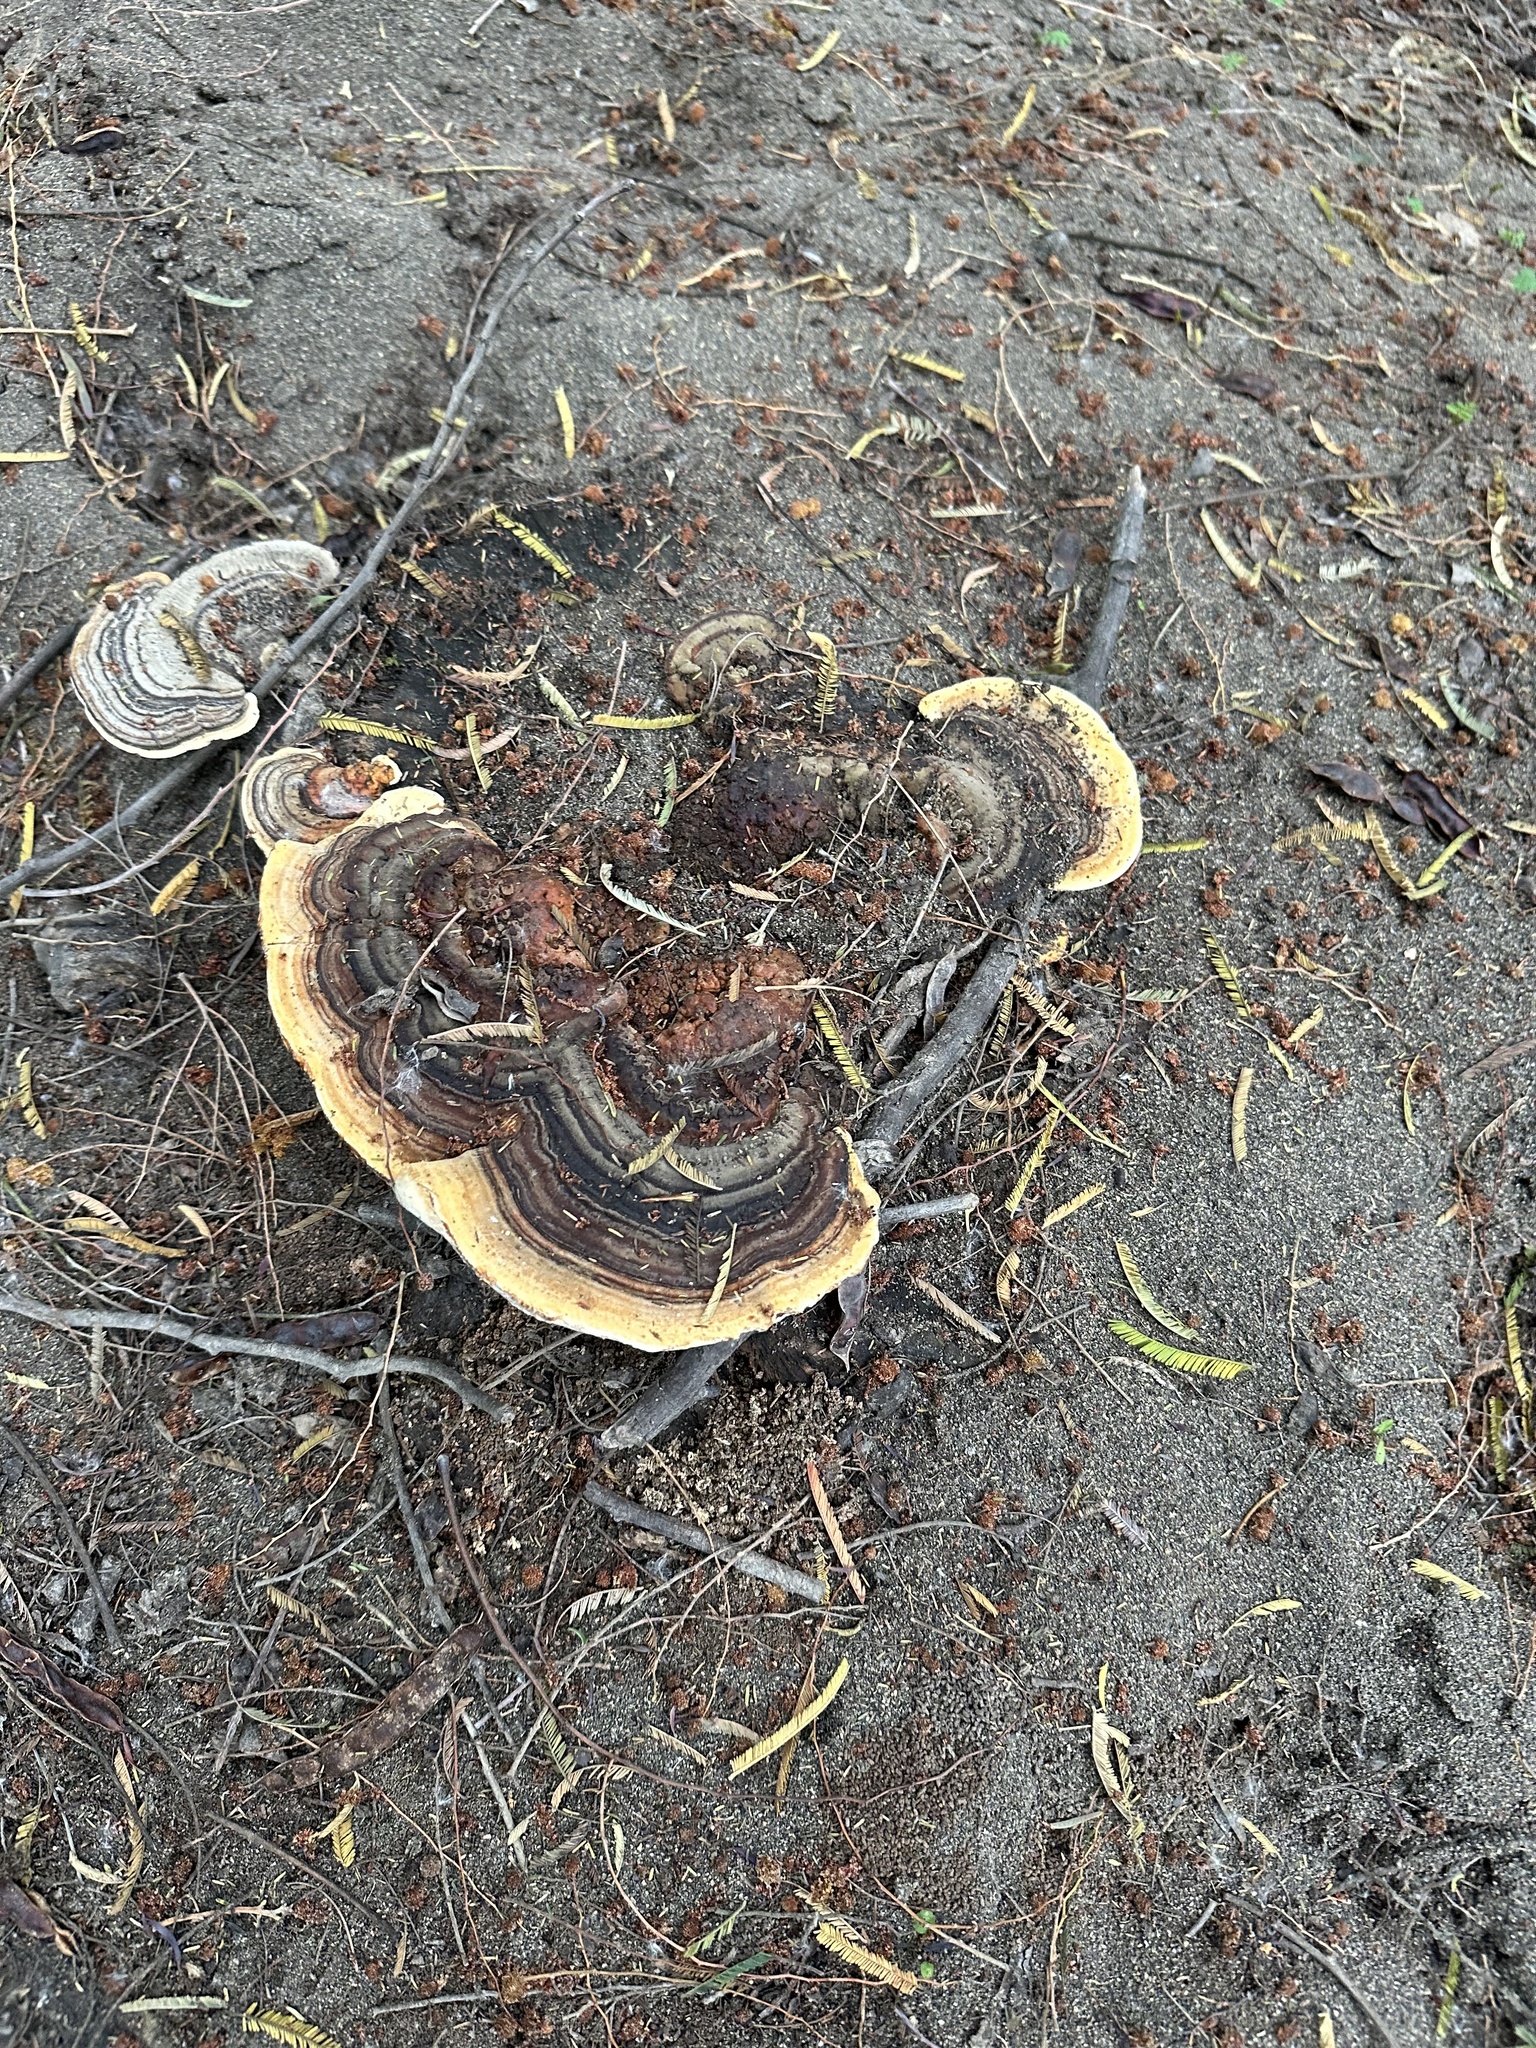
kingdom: Fungi
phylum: Basidiomycota
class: Agaricomycetes
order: Polyporales
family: Polyporaceae
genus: Trametes
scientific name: Trametes versicolor
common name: Turkeytail
